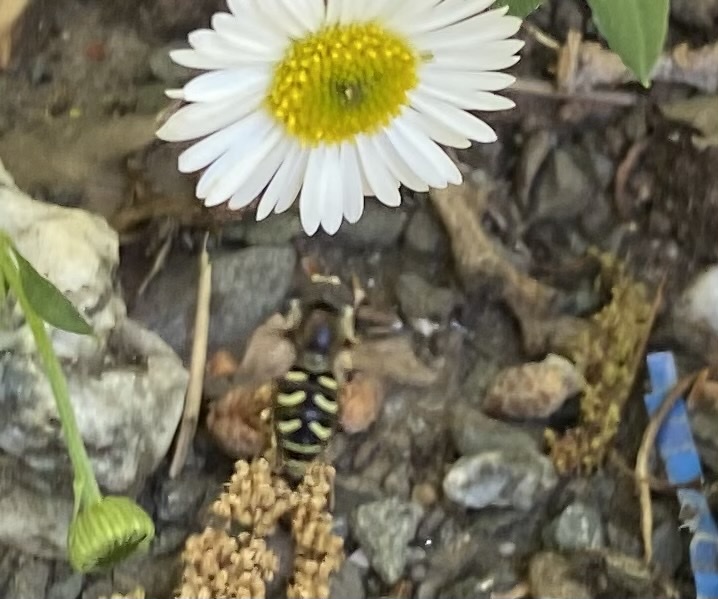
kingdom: Animalia
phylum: Arthropoda
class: Insecta
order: Diptera
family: Syrphidae
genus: Eupeodes
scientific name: Eupeodes volucris
